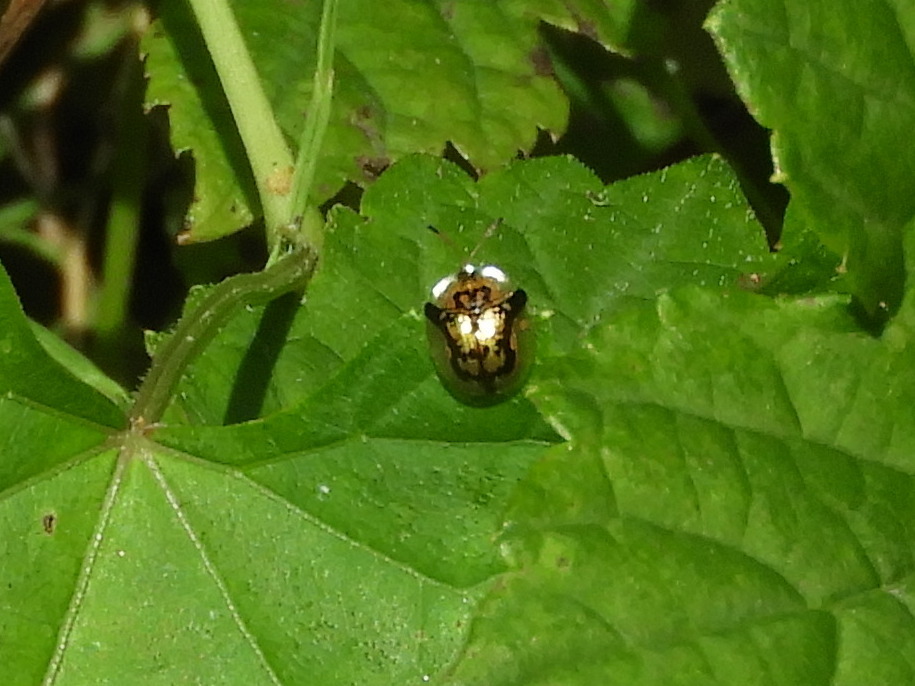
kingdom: Animalia
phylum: Arthropoda
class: Insecta
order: Coleoptera
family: Chrysomelidae
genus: Deloyala
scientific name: Deloyala guttata
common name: Mottled tortoise beetle
